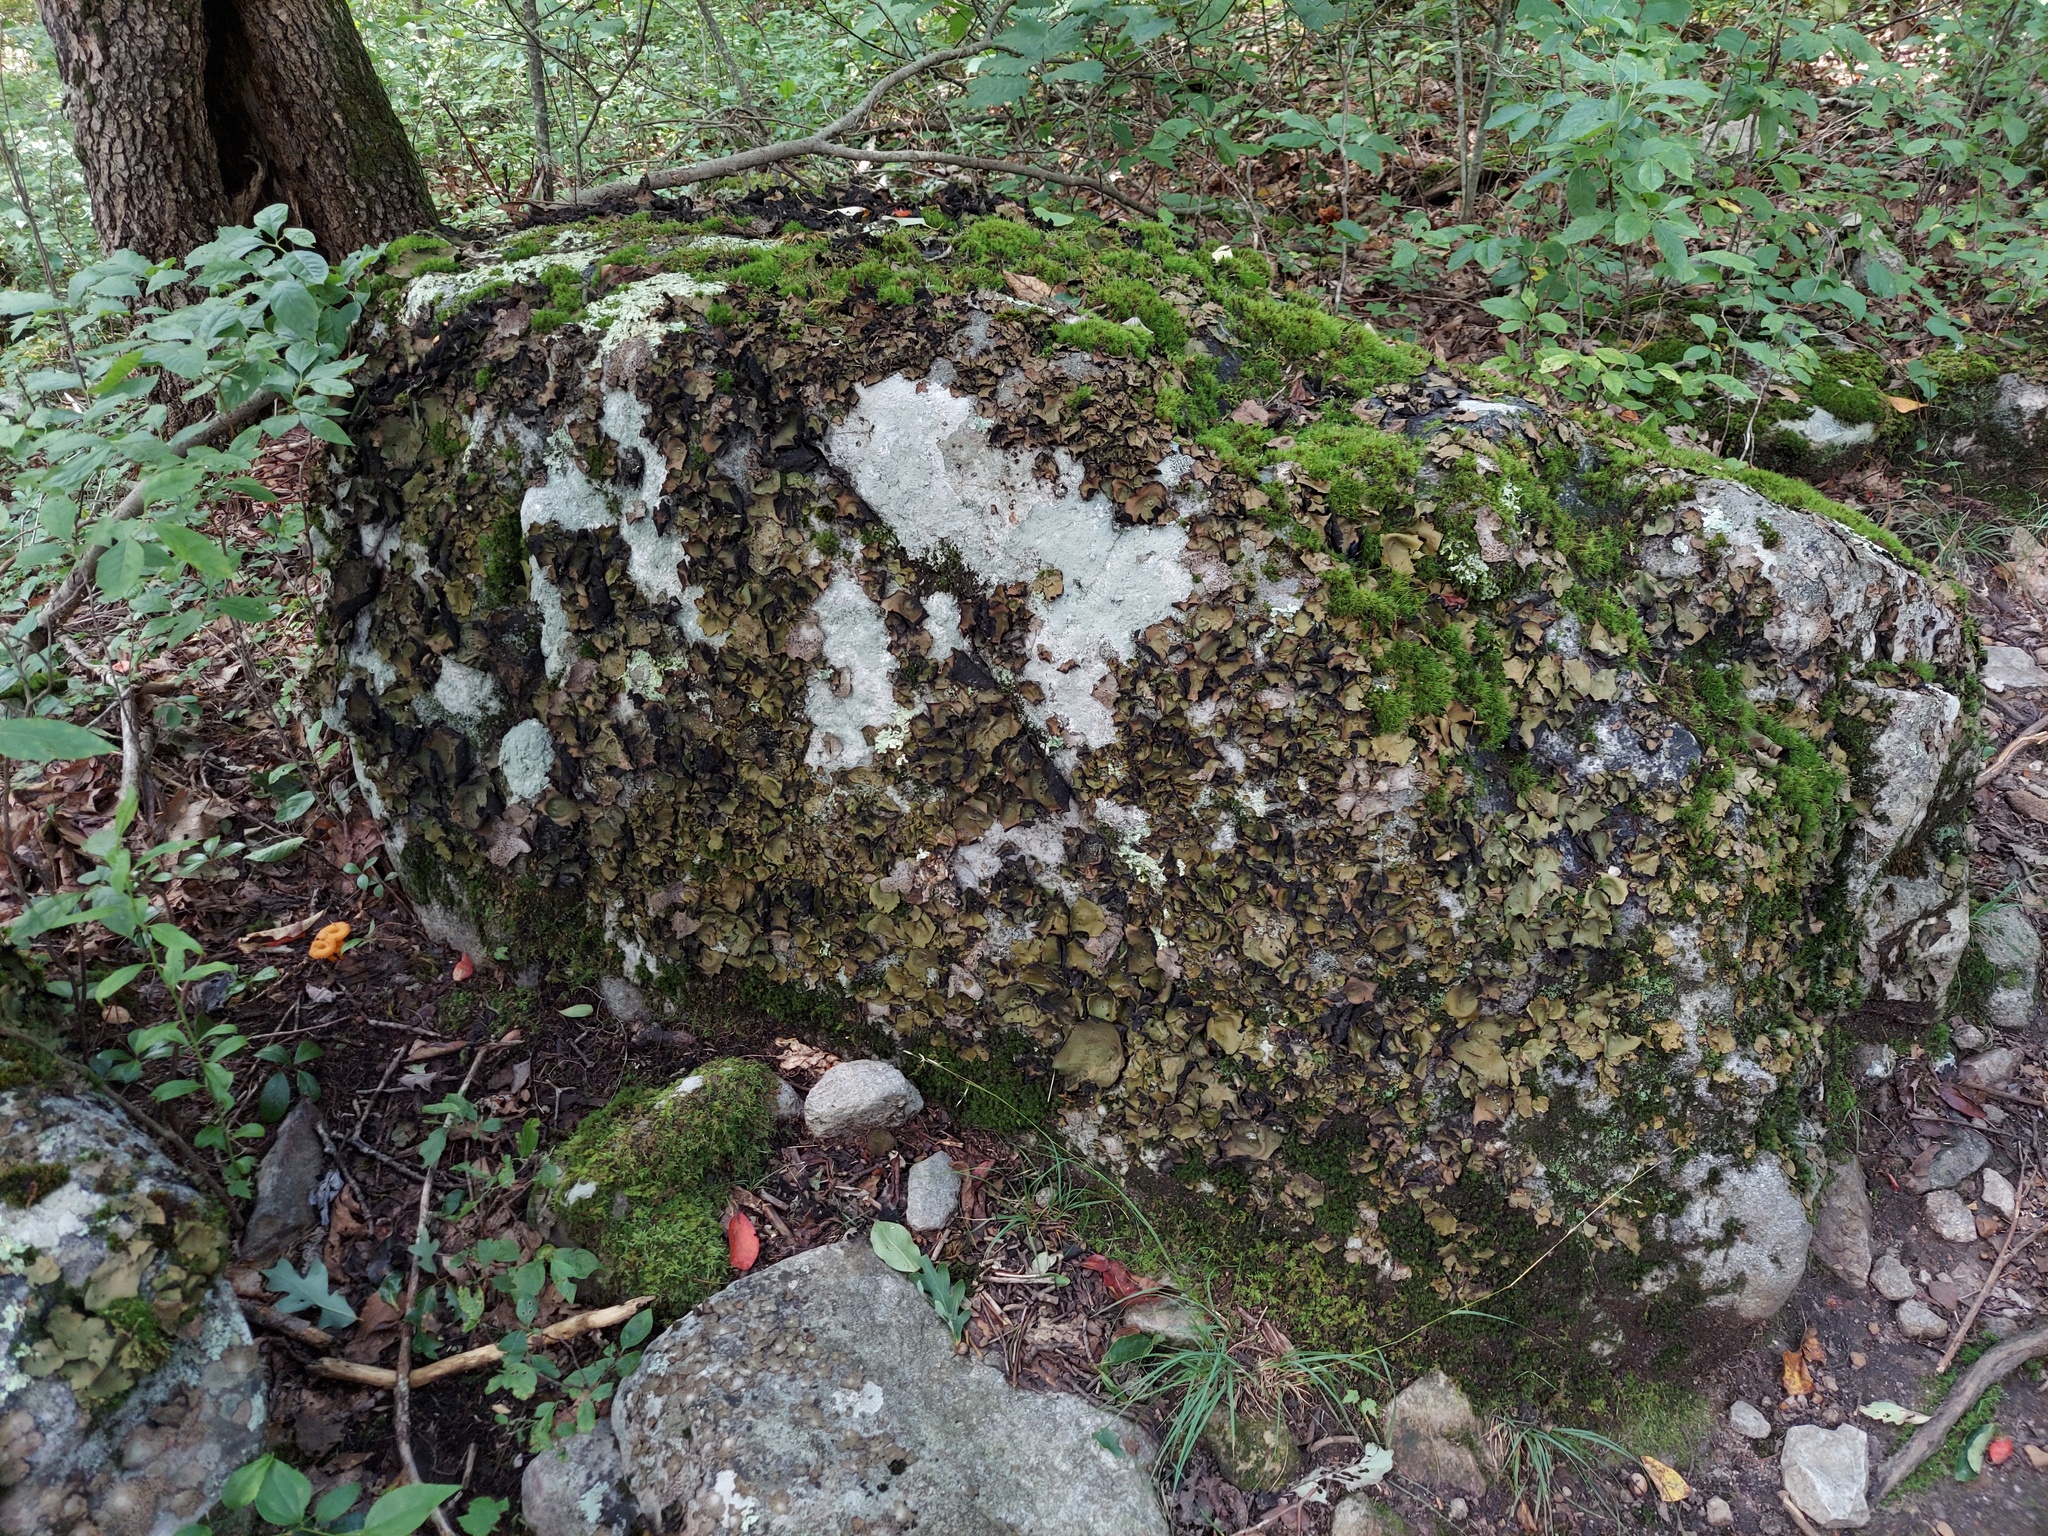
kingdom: Fungi
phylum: Ascomycota
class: Lecanoromycetes
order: Umbilicariales
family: Umbilicariaceae
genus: Umbilicaria
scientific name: Umbilicaria mammulata
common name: Smooth rock tripe
